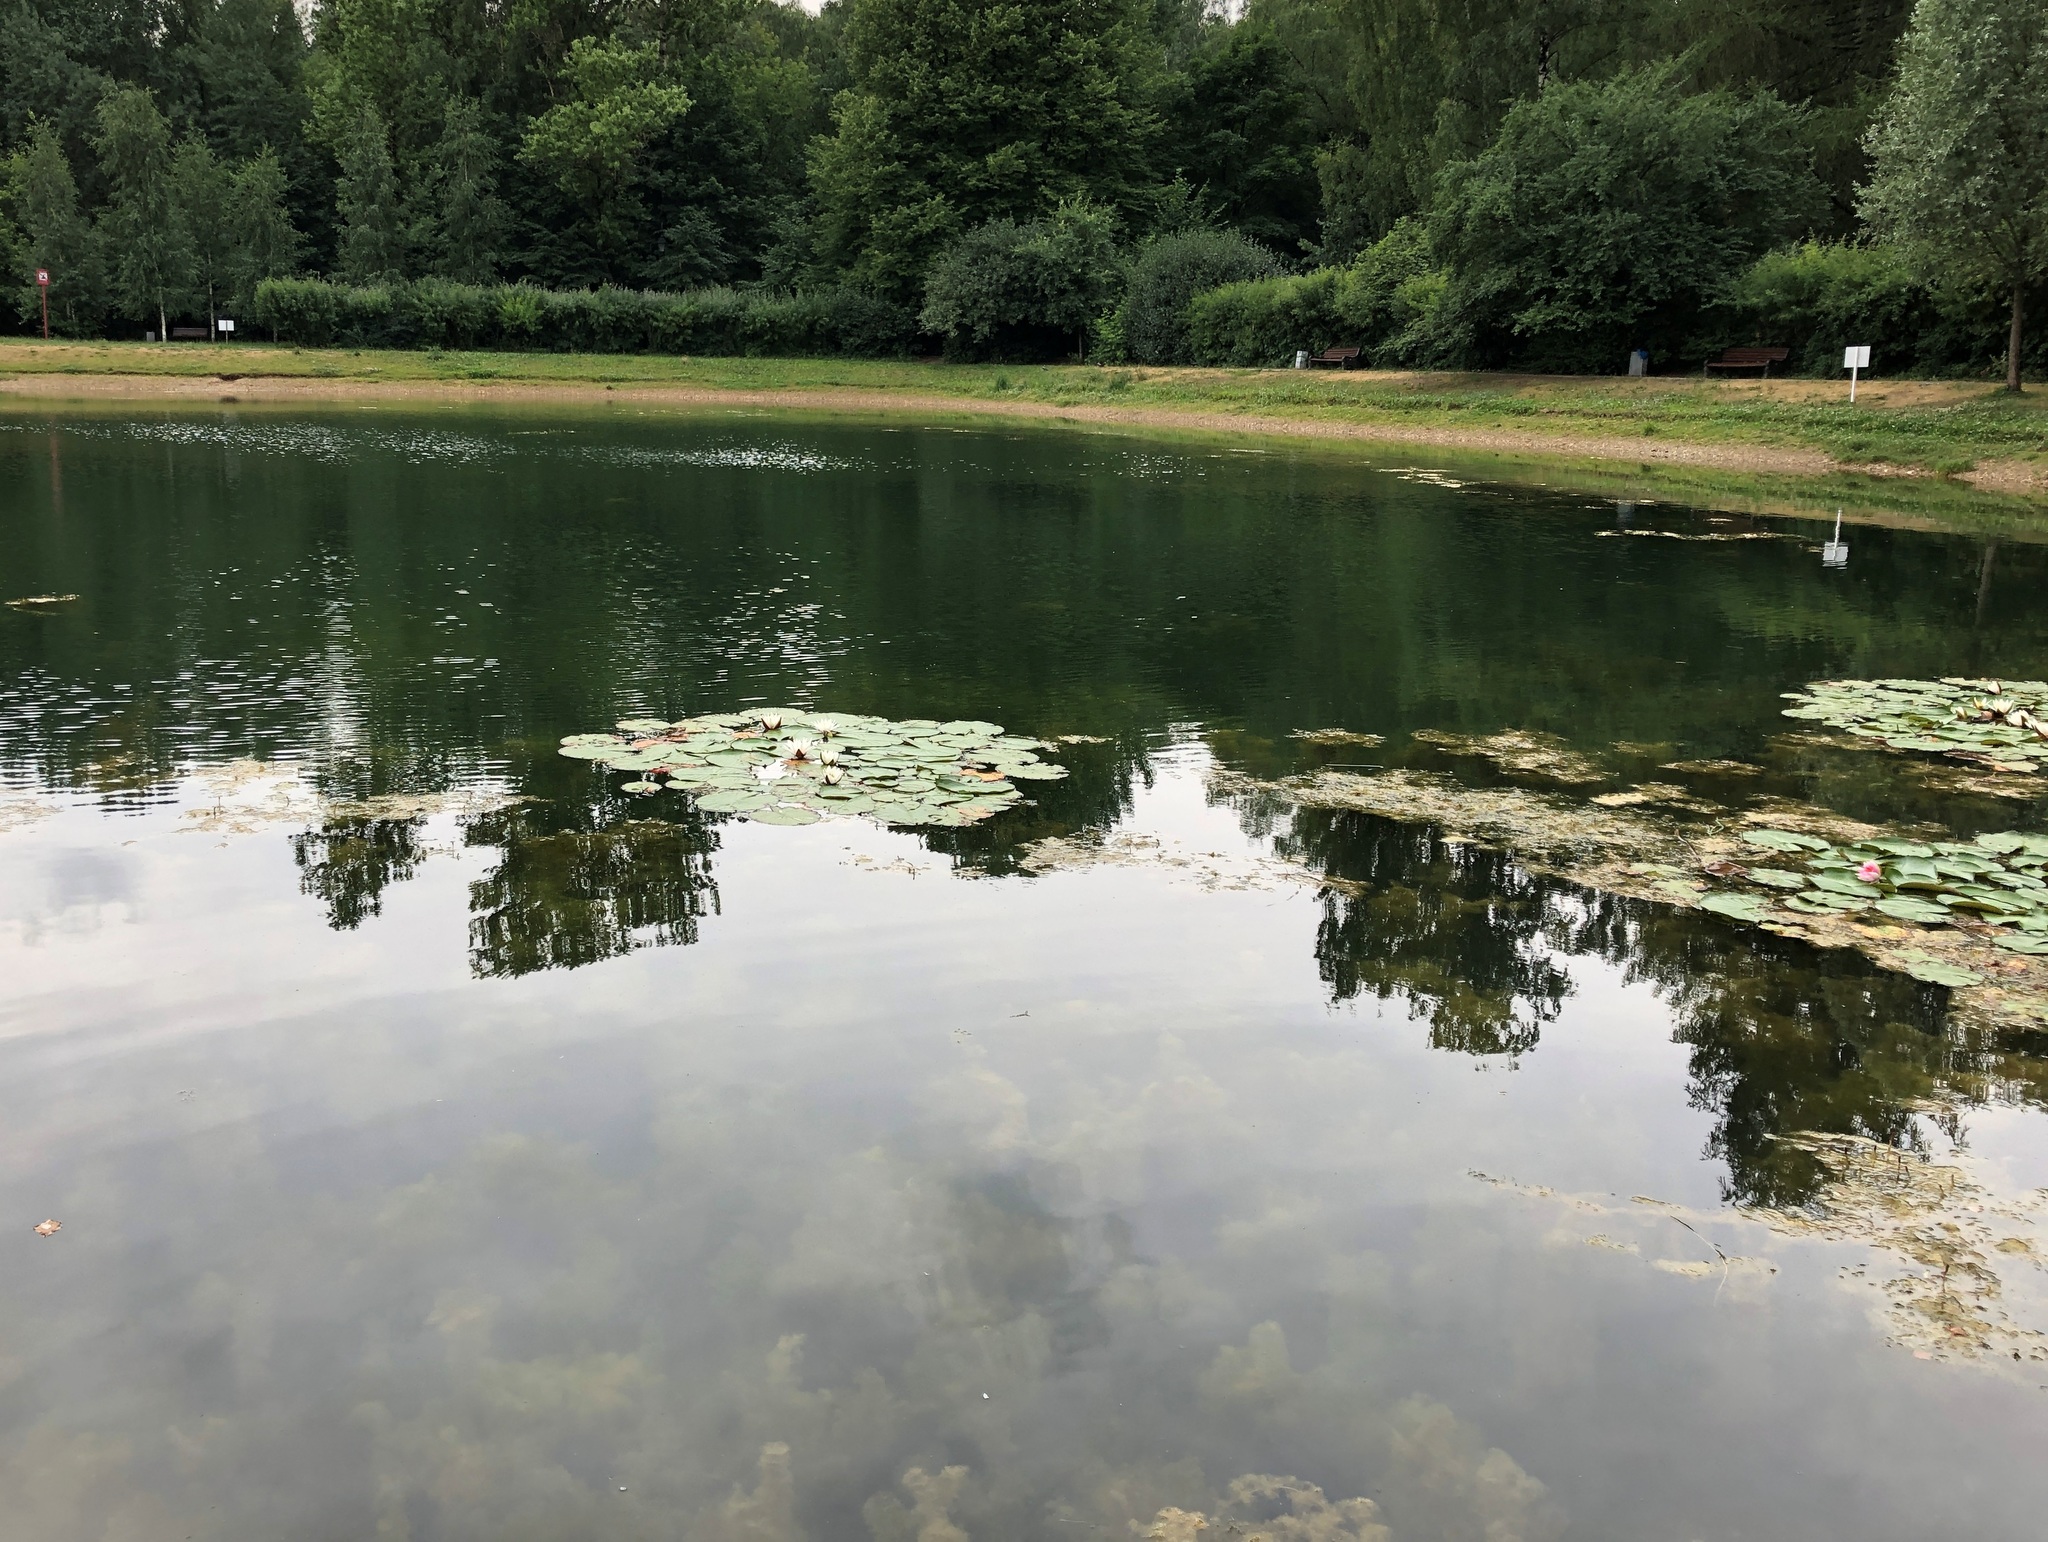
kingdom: Plantae
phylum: Tracheophyta
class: Magnoliopsida
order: Nymphaeales
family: Nymphaeaceae
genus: Nymphaea
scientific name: Nymphaea candida
